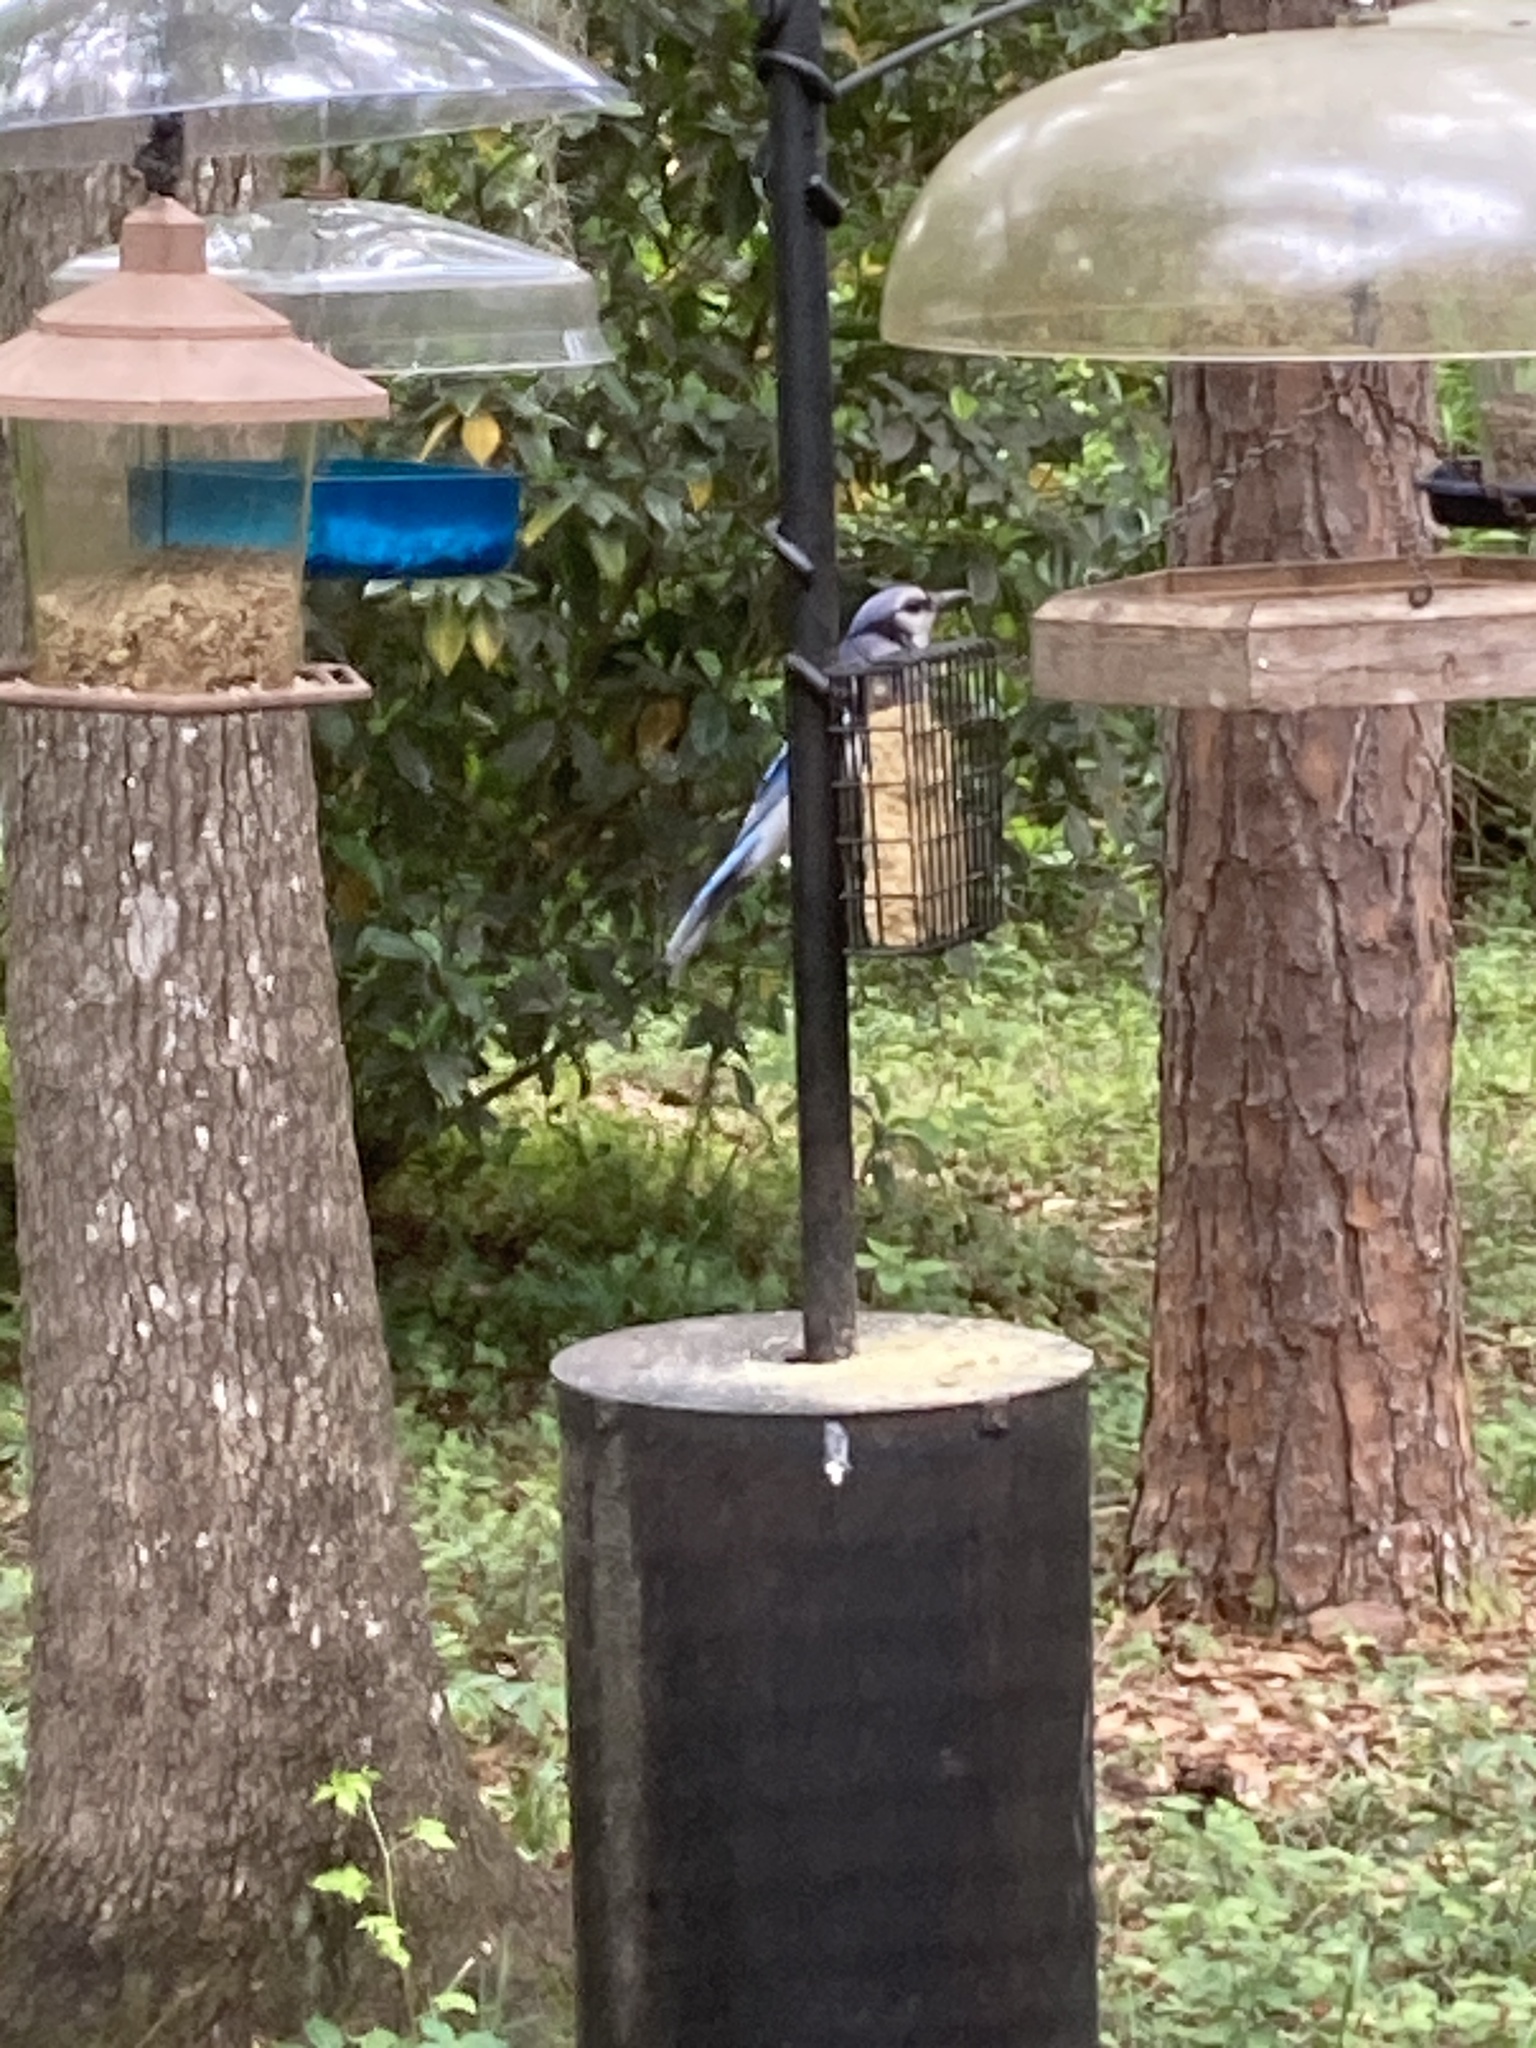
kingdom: Animalia
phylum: Chordata
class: Aves
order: Passeriformes
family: Corvidae
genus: Cyanocitta
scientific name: Cyanocitta cristata
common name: Blue jay
